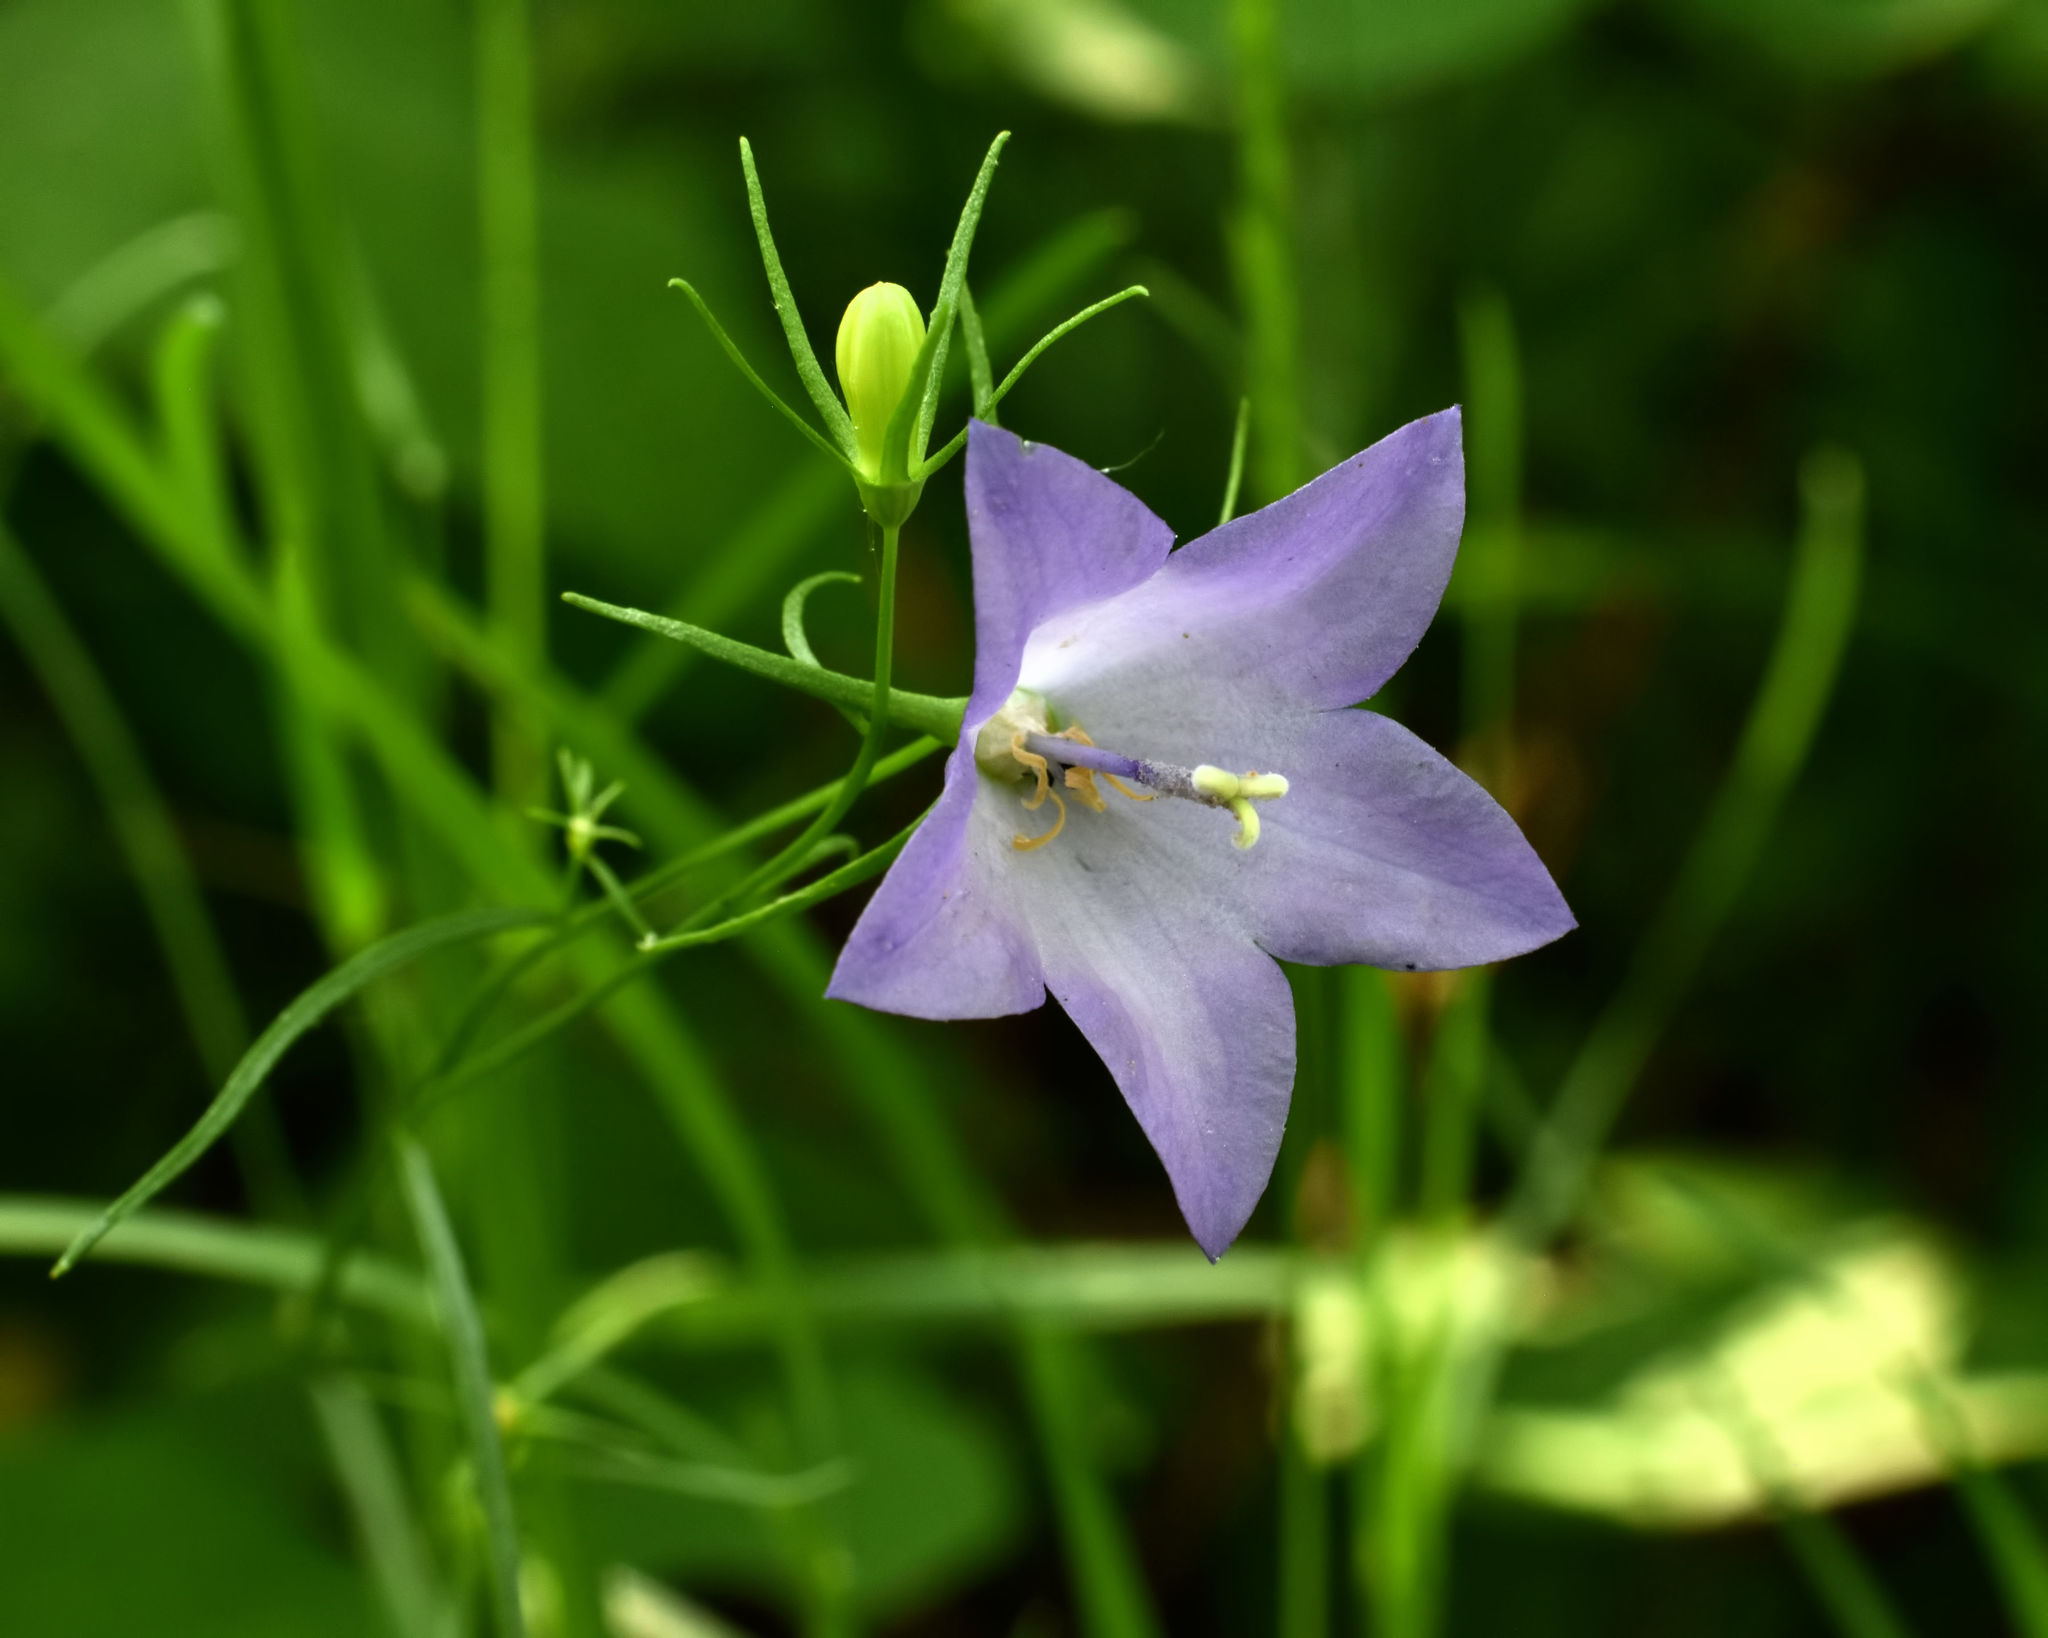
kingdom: Plantae
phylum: Tracheophyta
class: Magnoliopsida
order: Asterales
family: Campanulaceae
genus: Campanula
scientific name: Campanula intercedens
